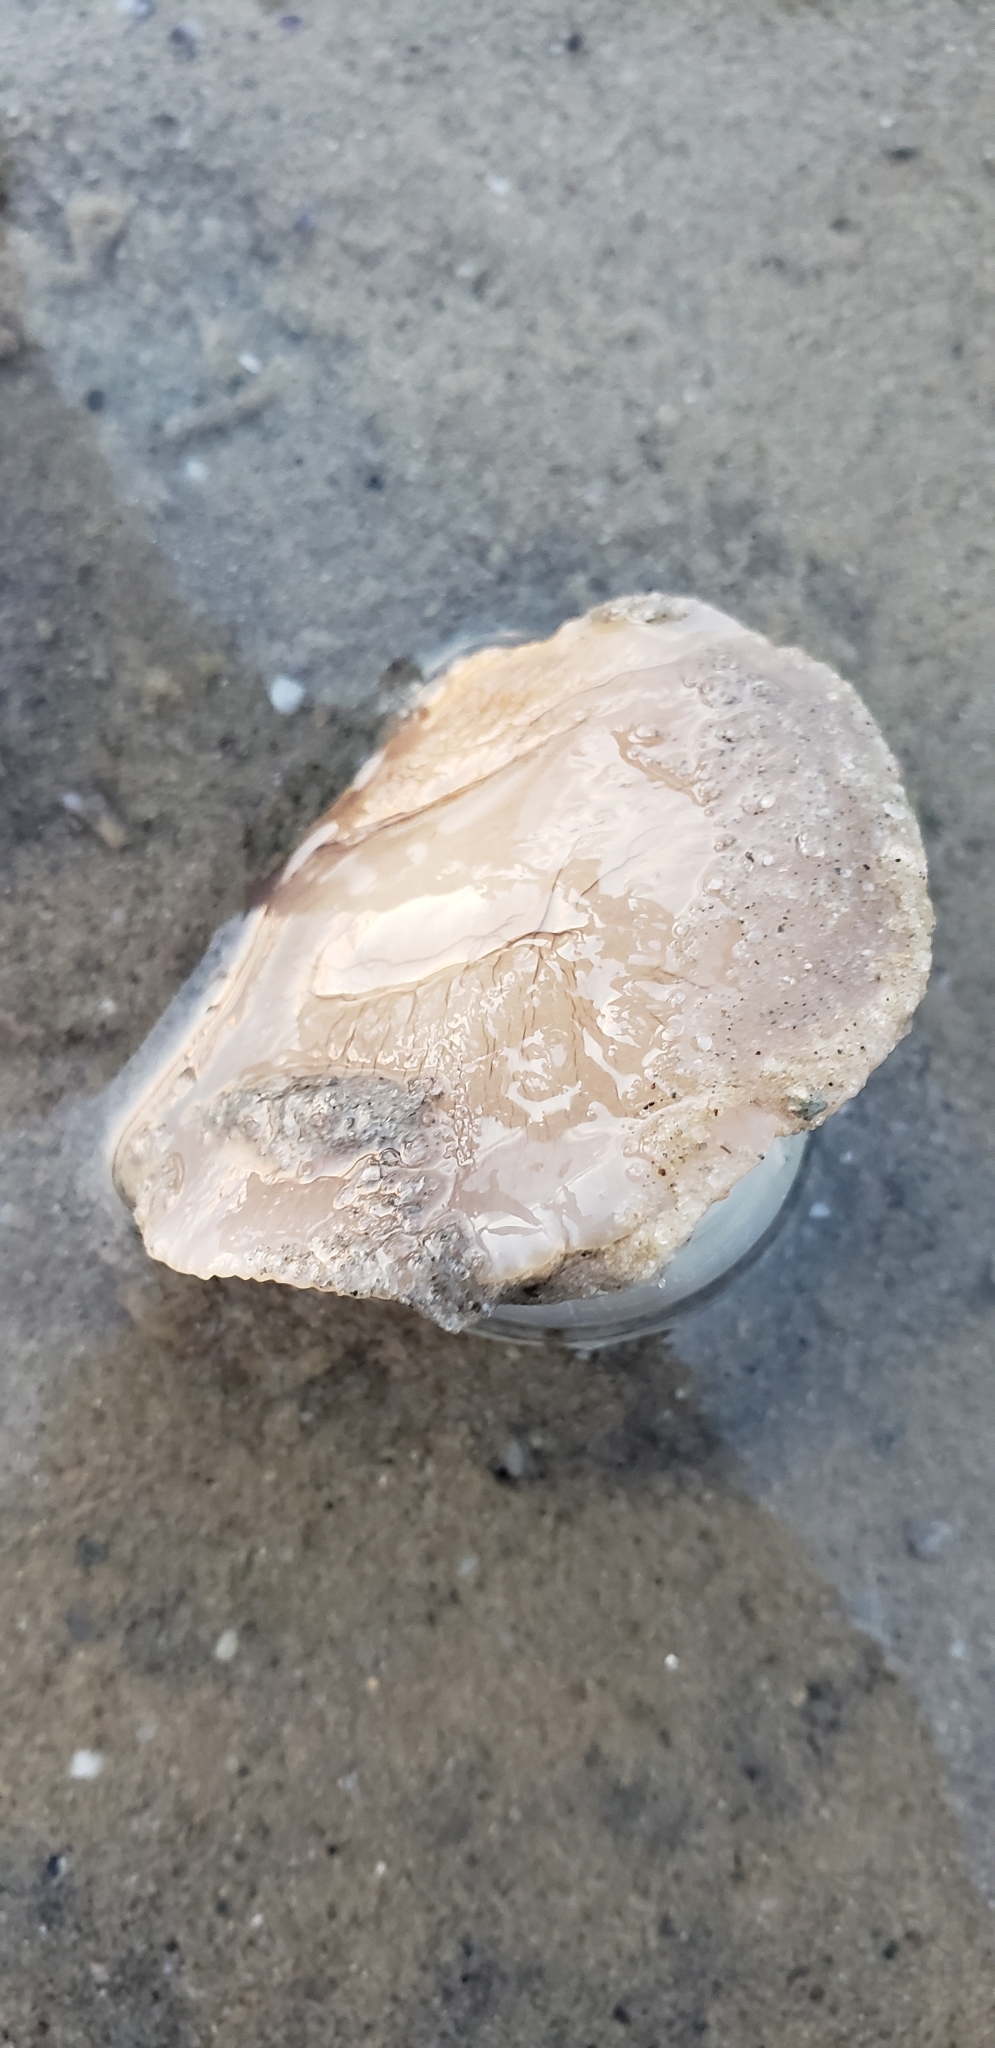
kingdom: Animalia
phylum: Mollusca
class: Gastropoda
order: Littorinimorpha
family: Naticidae
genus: Neverita
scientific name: Neverita duplicata
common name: Lobed moonsnail
